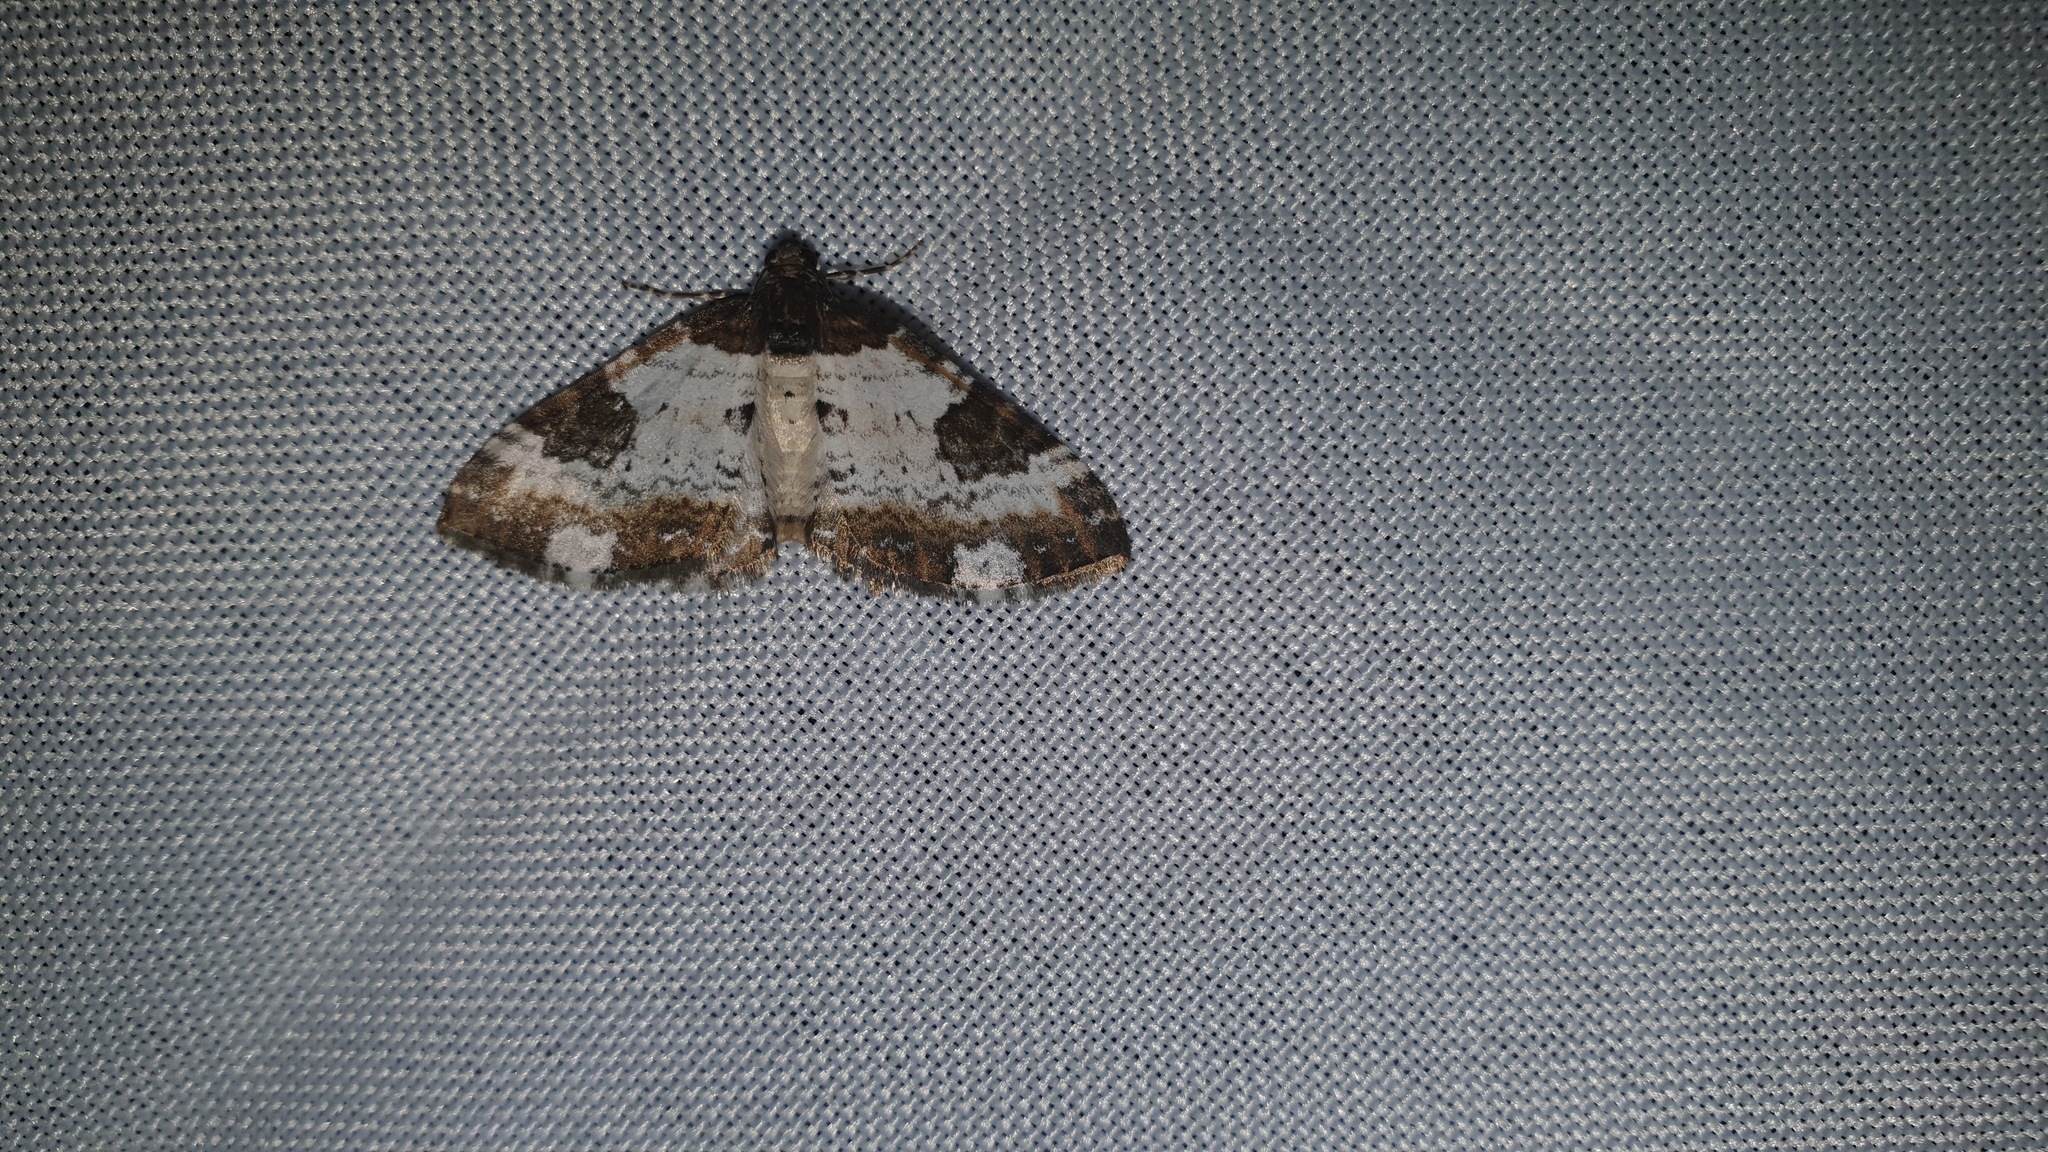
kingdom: Animalia
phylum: Arthropoda
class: Insecta
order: Lepidoptera
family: Geometridae
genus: Melanthia
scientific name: Melanthia procellata
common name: Pretty chalk carpet
